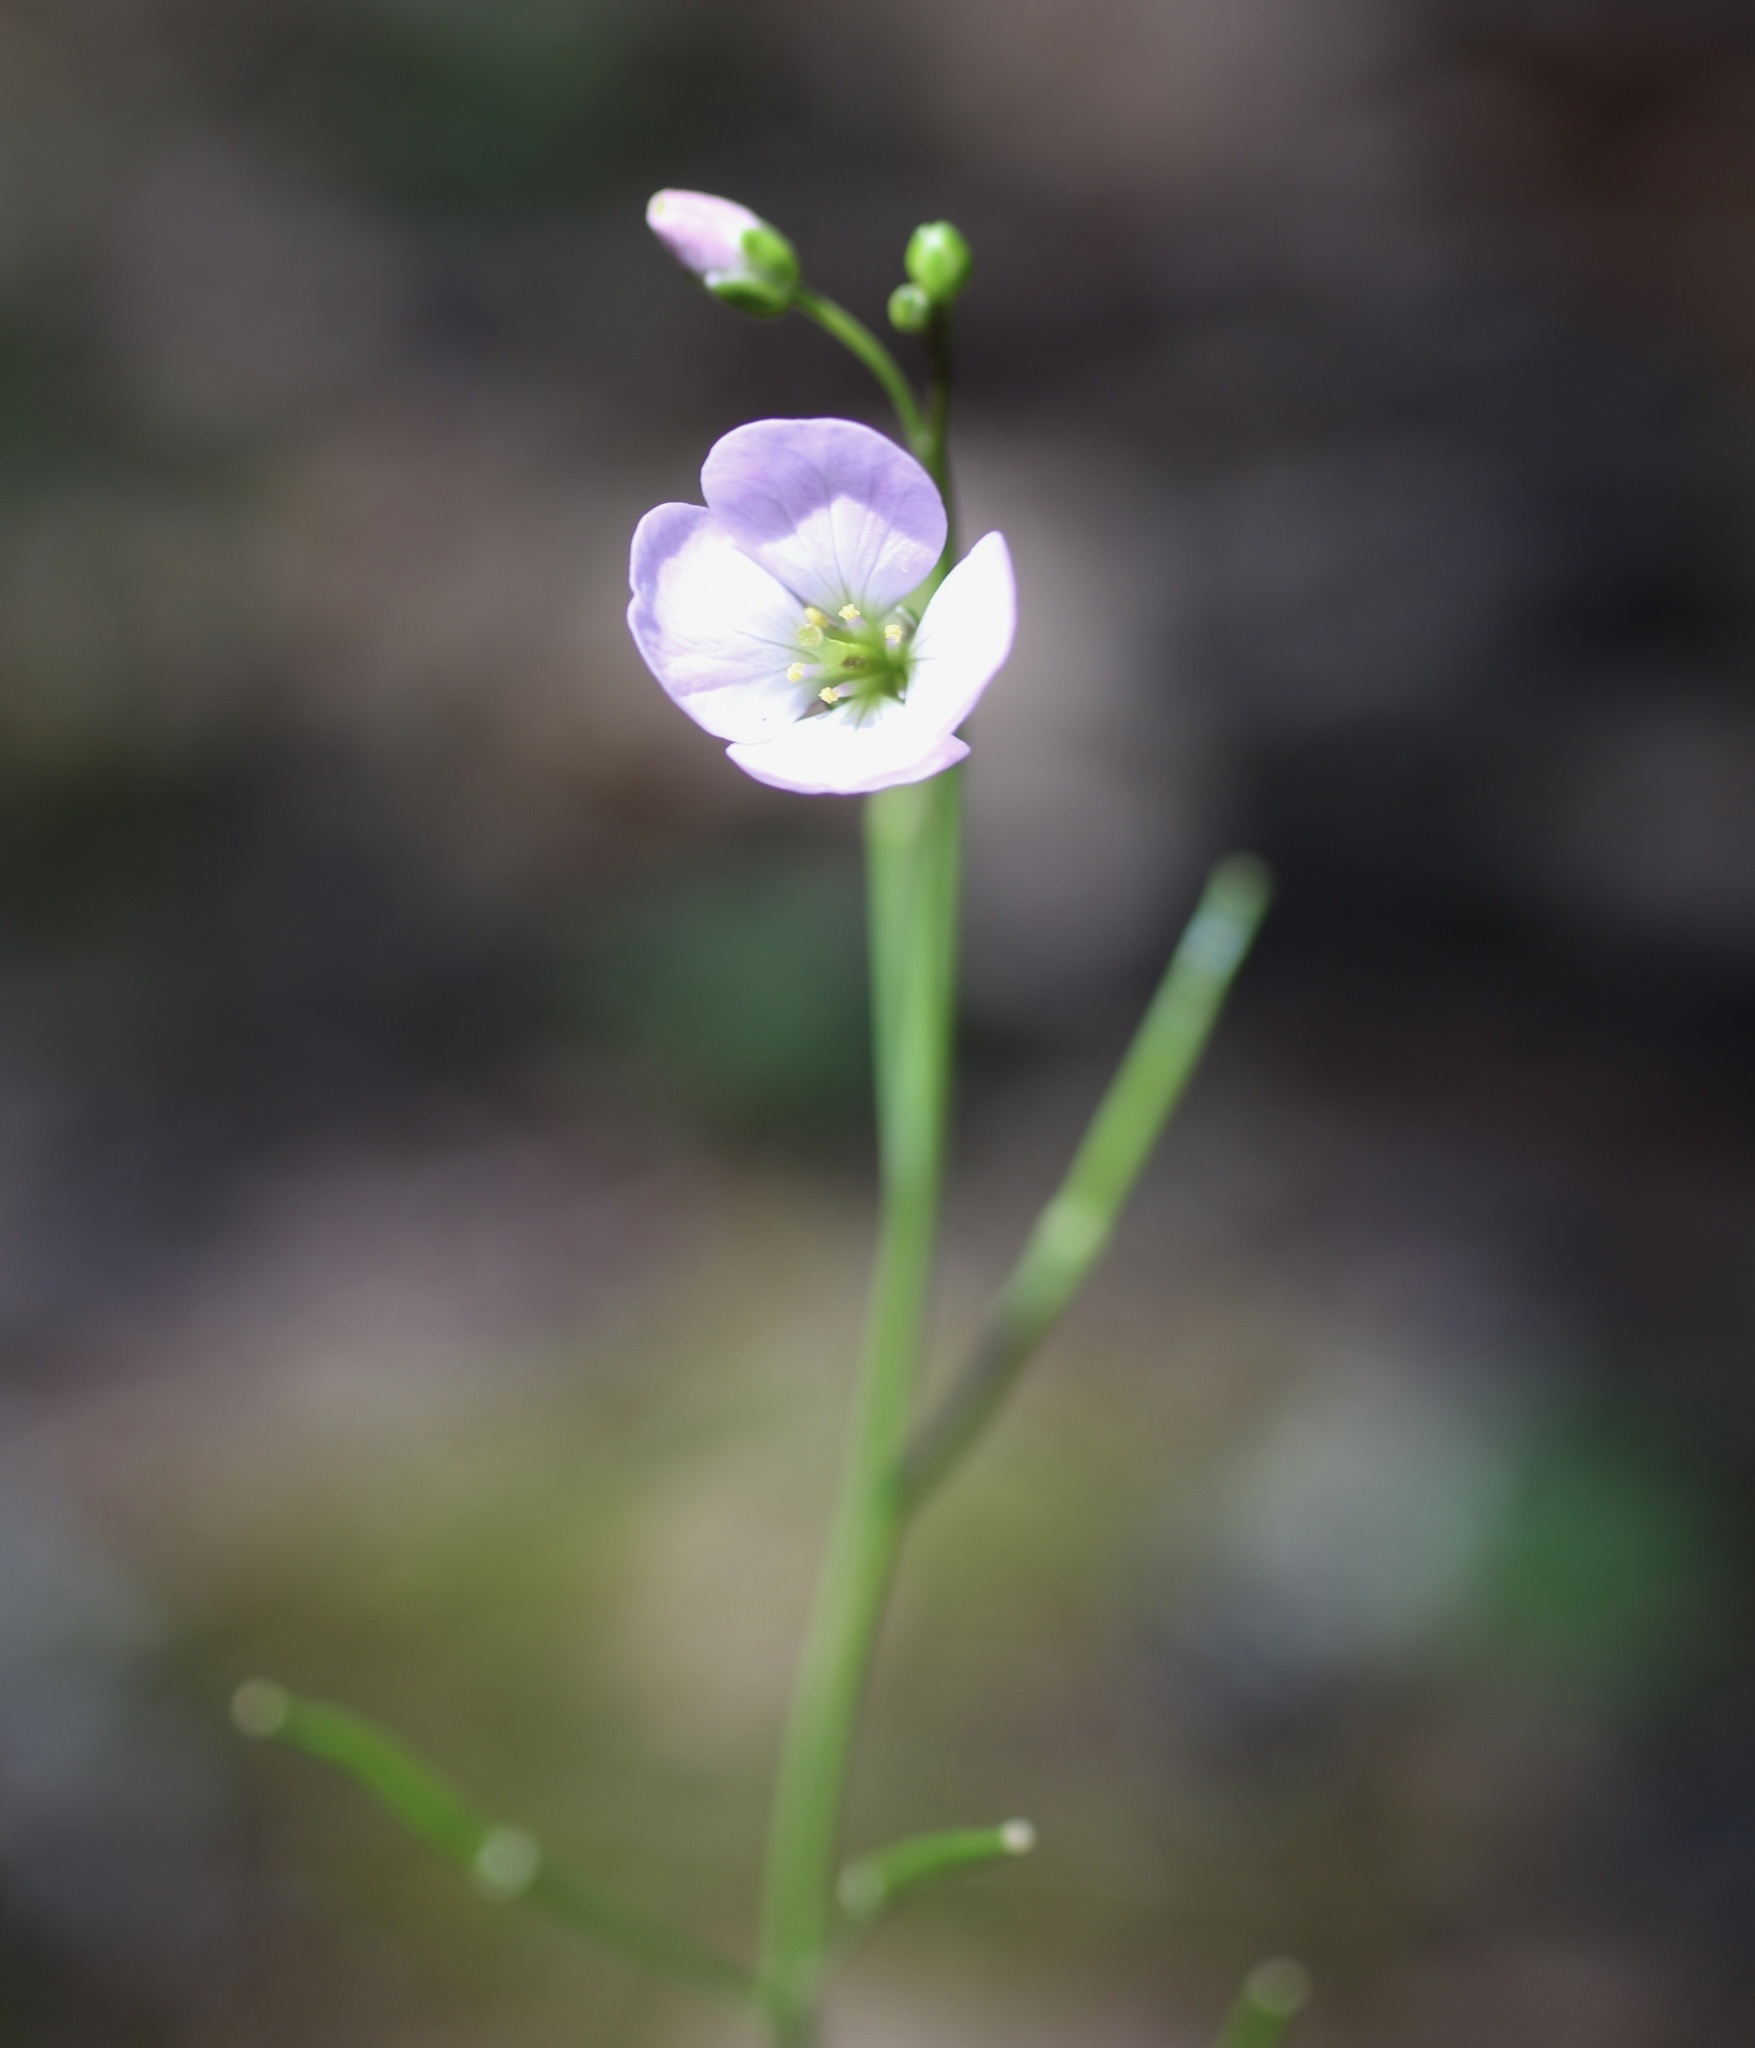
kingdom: Plantae
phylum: Tracheophyta
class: Magnoliopsida
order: Brassicales
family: Brassicaceae
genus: Cardamine
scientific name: Cardamine californica
